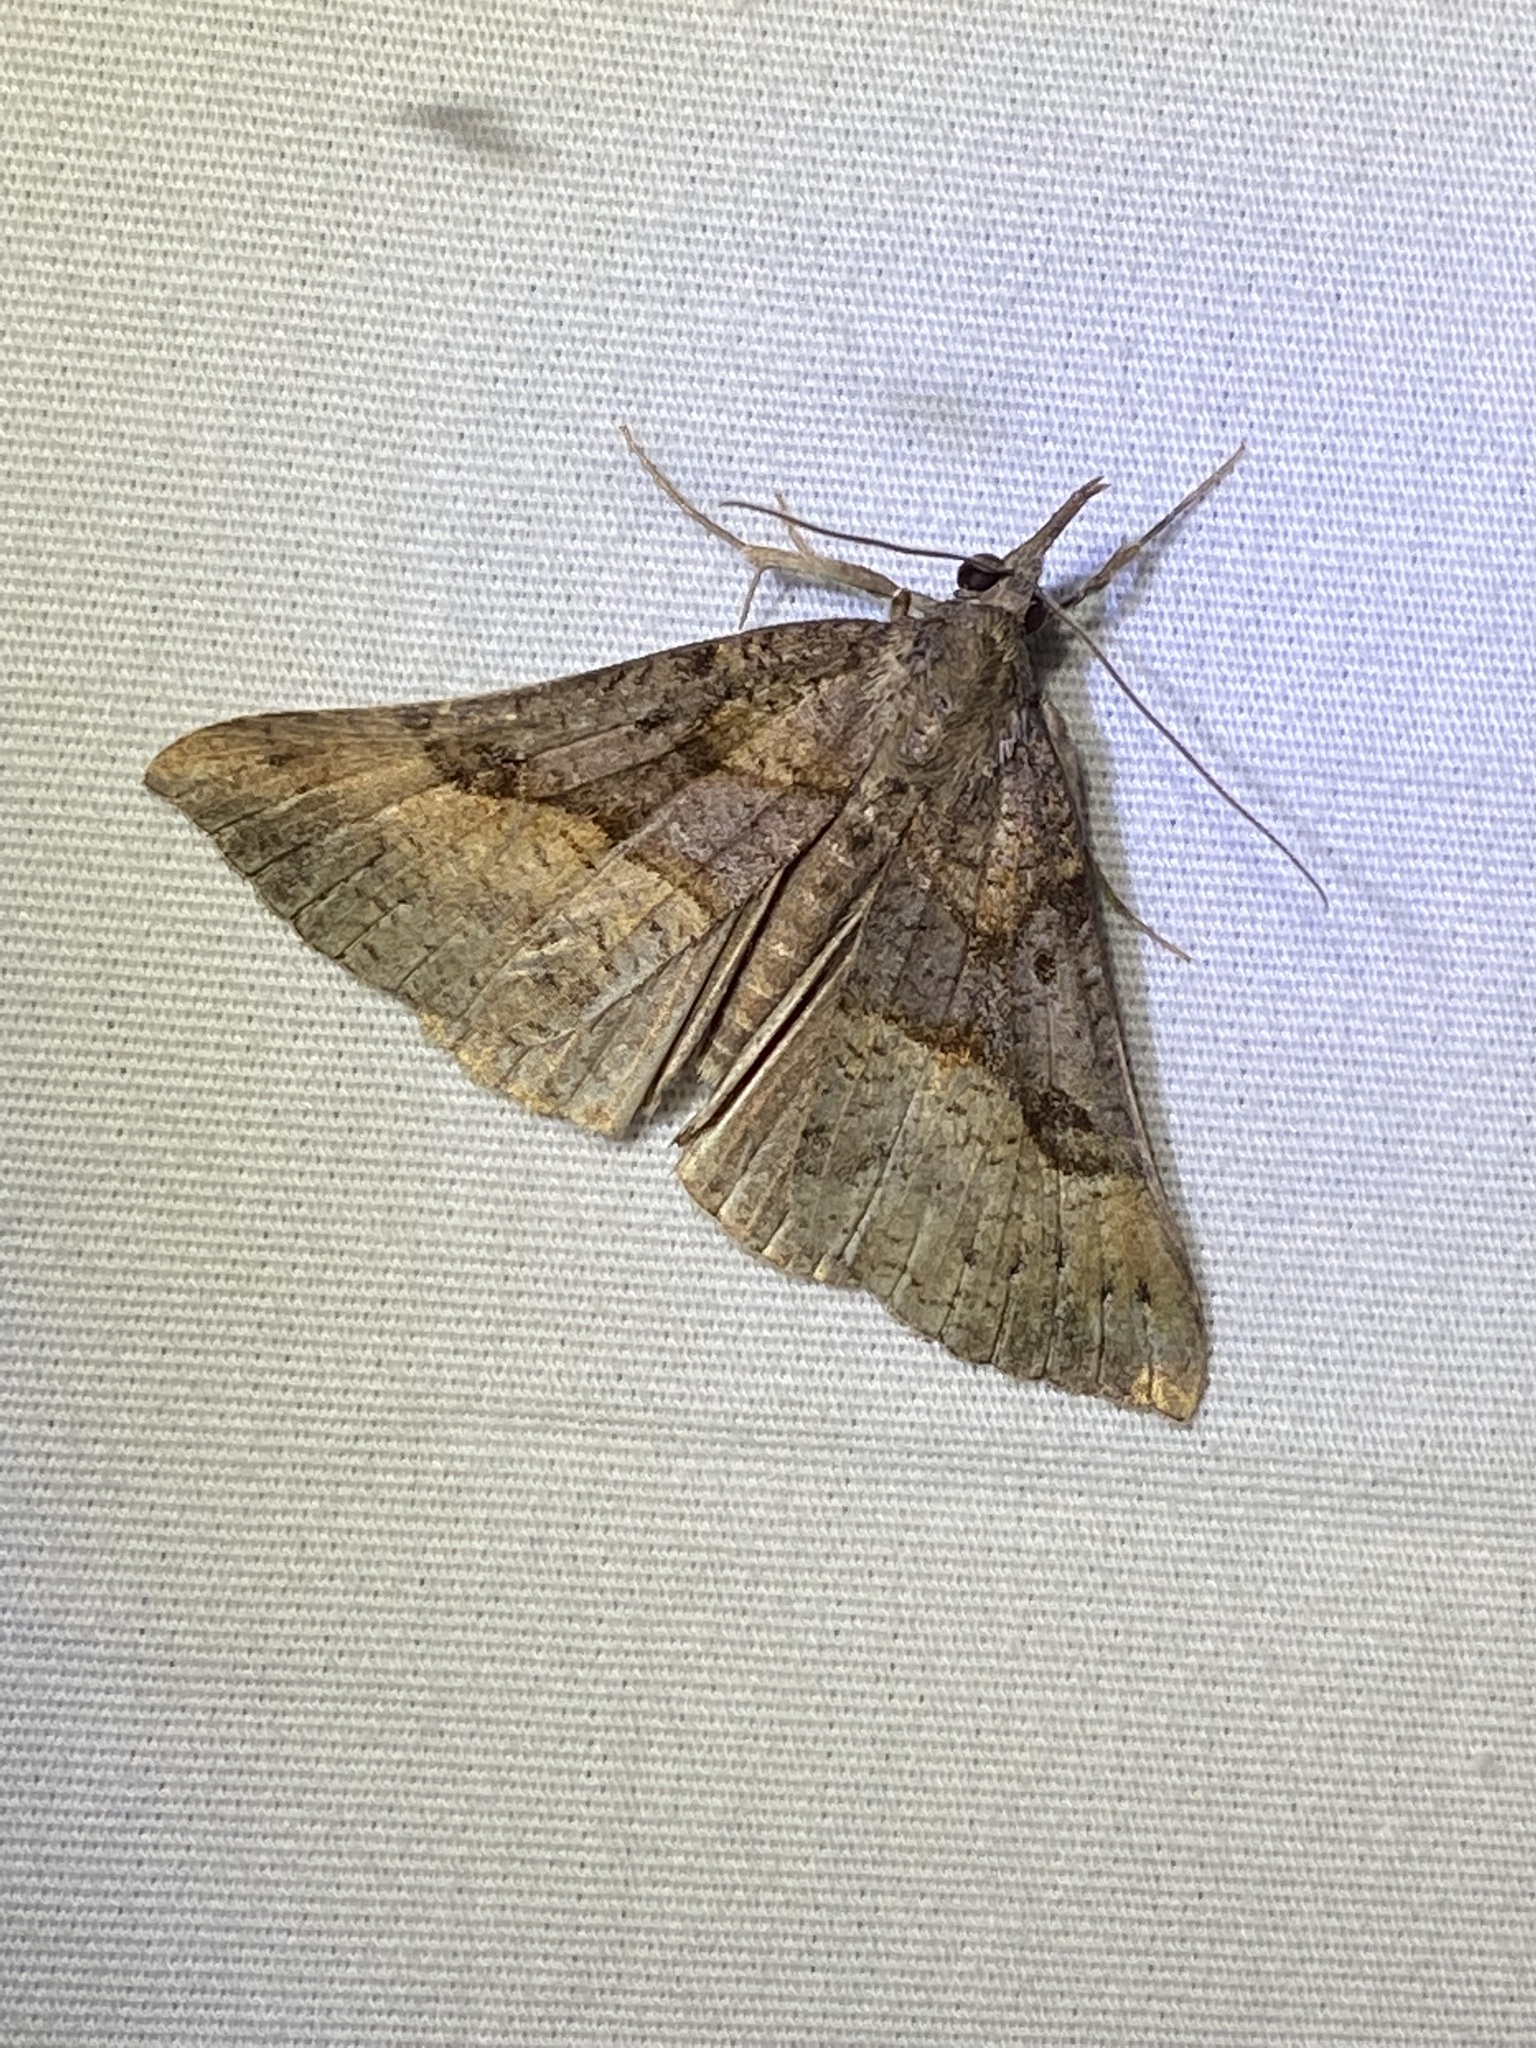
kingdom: Animalia
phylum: Arthropoda
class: Insecta
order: Lepidoptera
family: Erebidae
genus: Hypena
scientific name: Hypena edictalis
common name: Large snout
